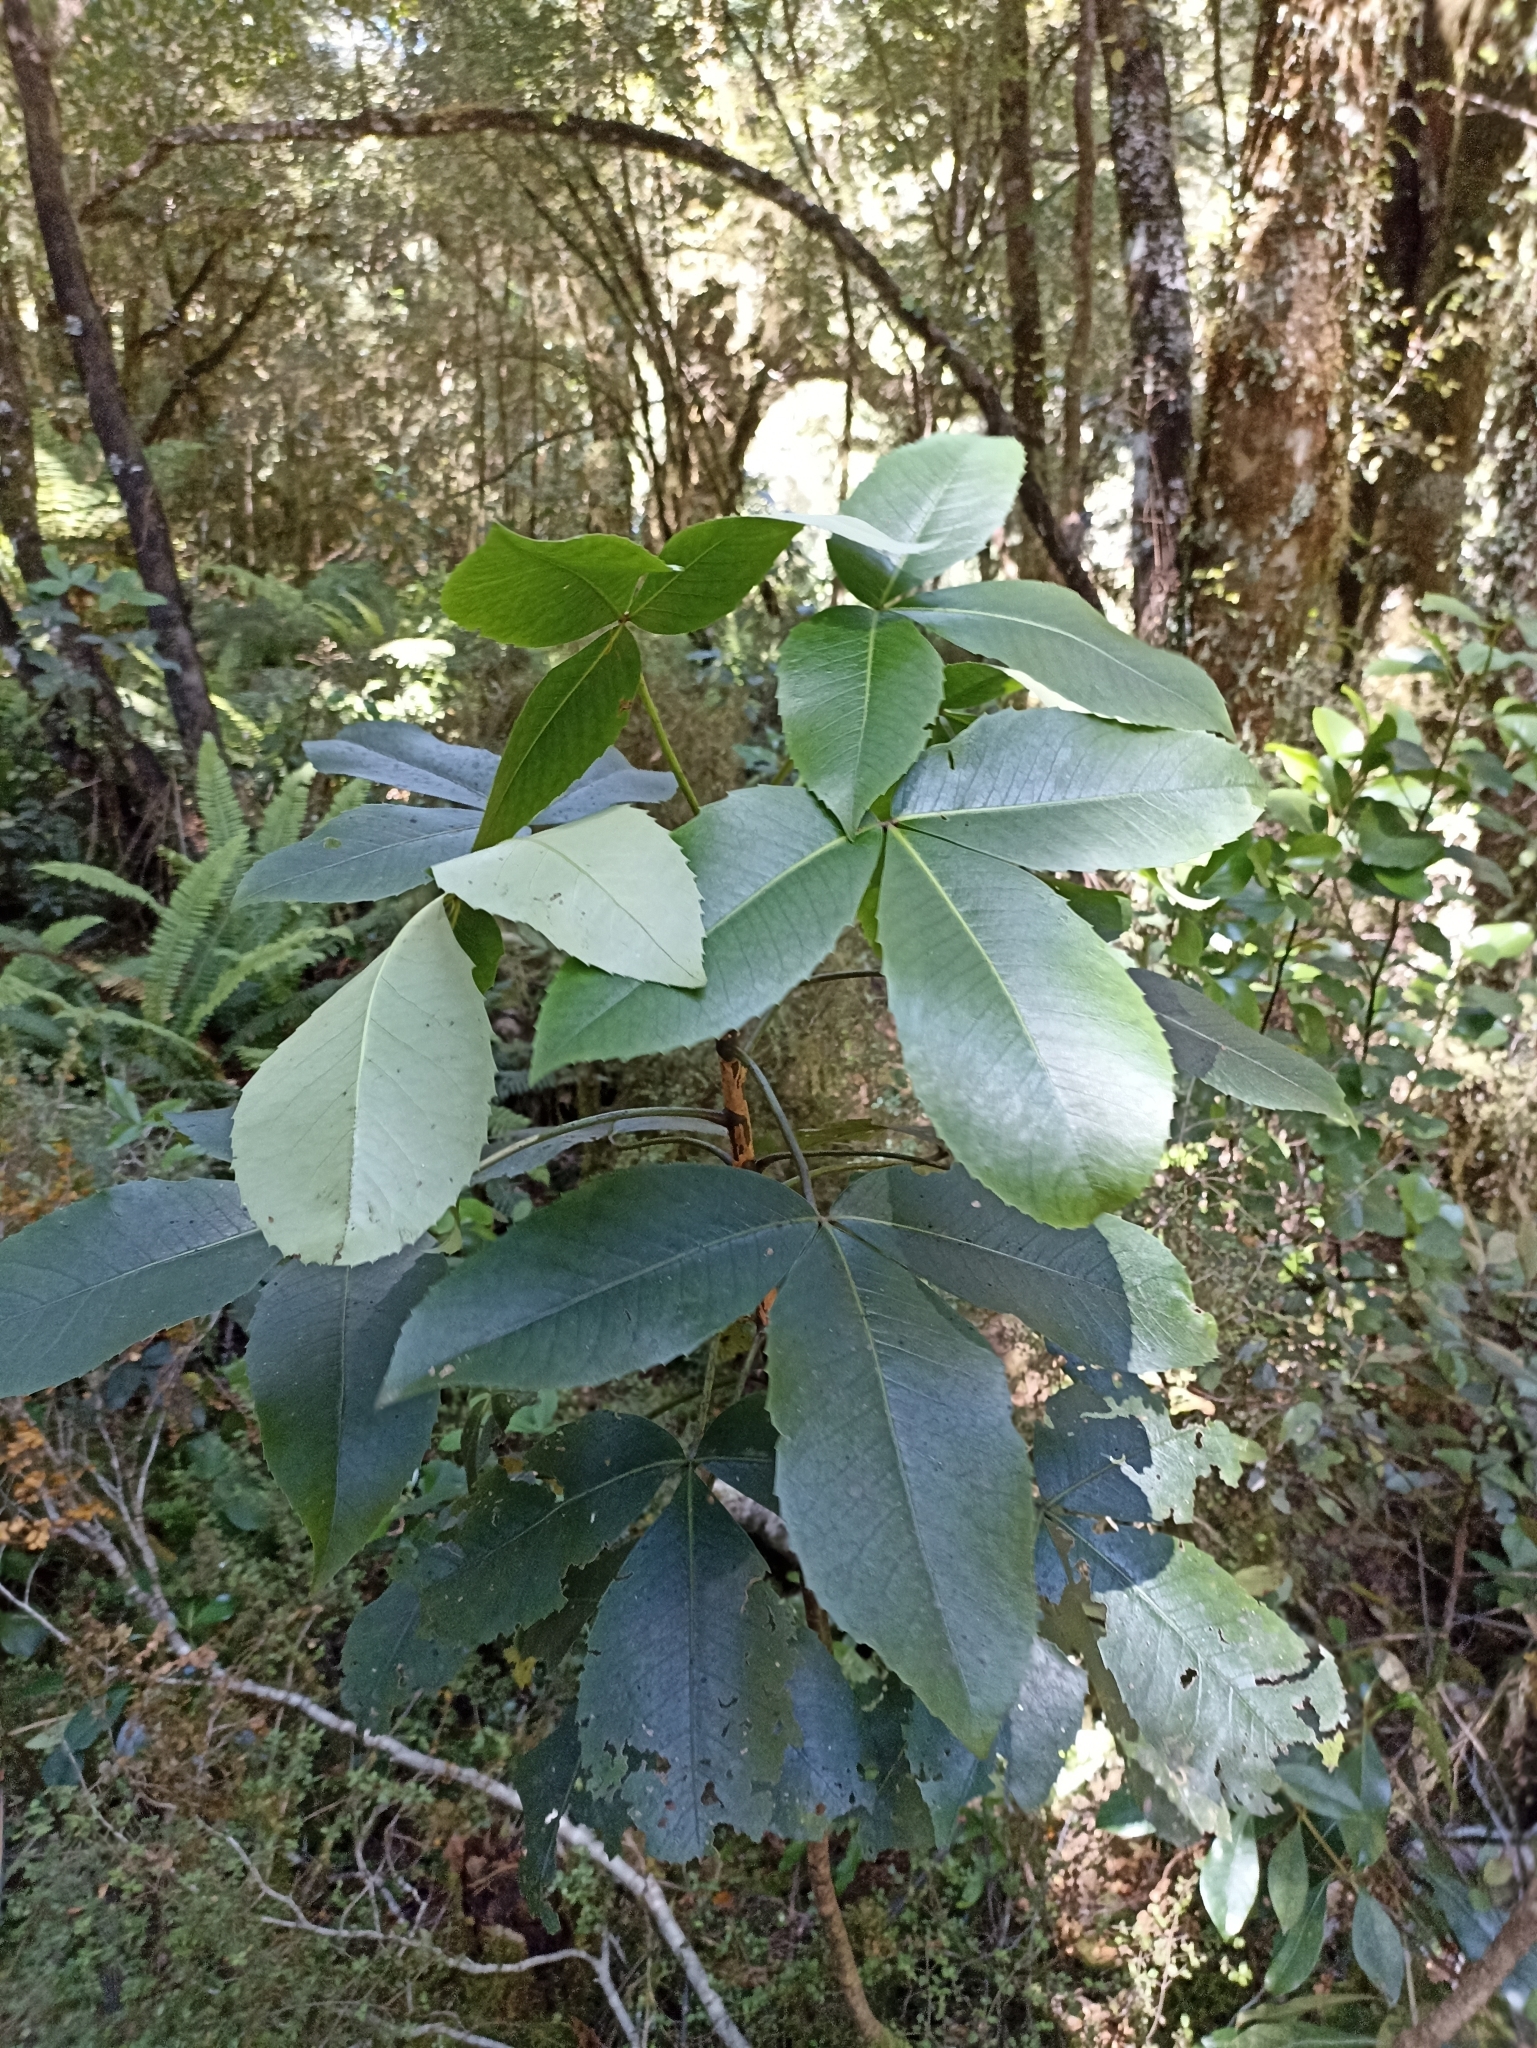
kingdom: Plantae
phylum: Tracheophyta
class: Magnoliopsida
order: Apiales
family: Araliaceae
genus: Neopanax
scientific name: Neopanax colensoi
